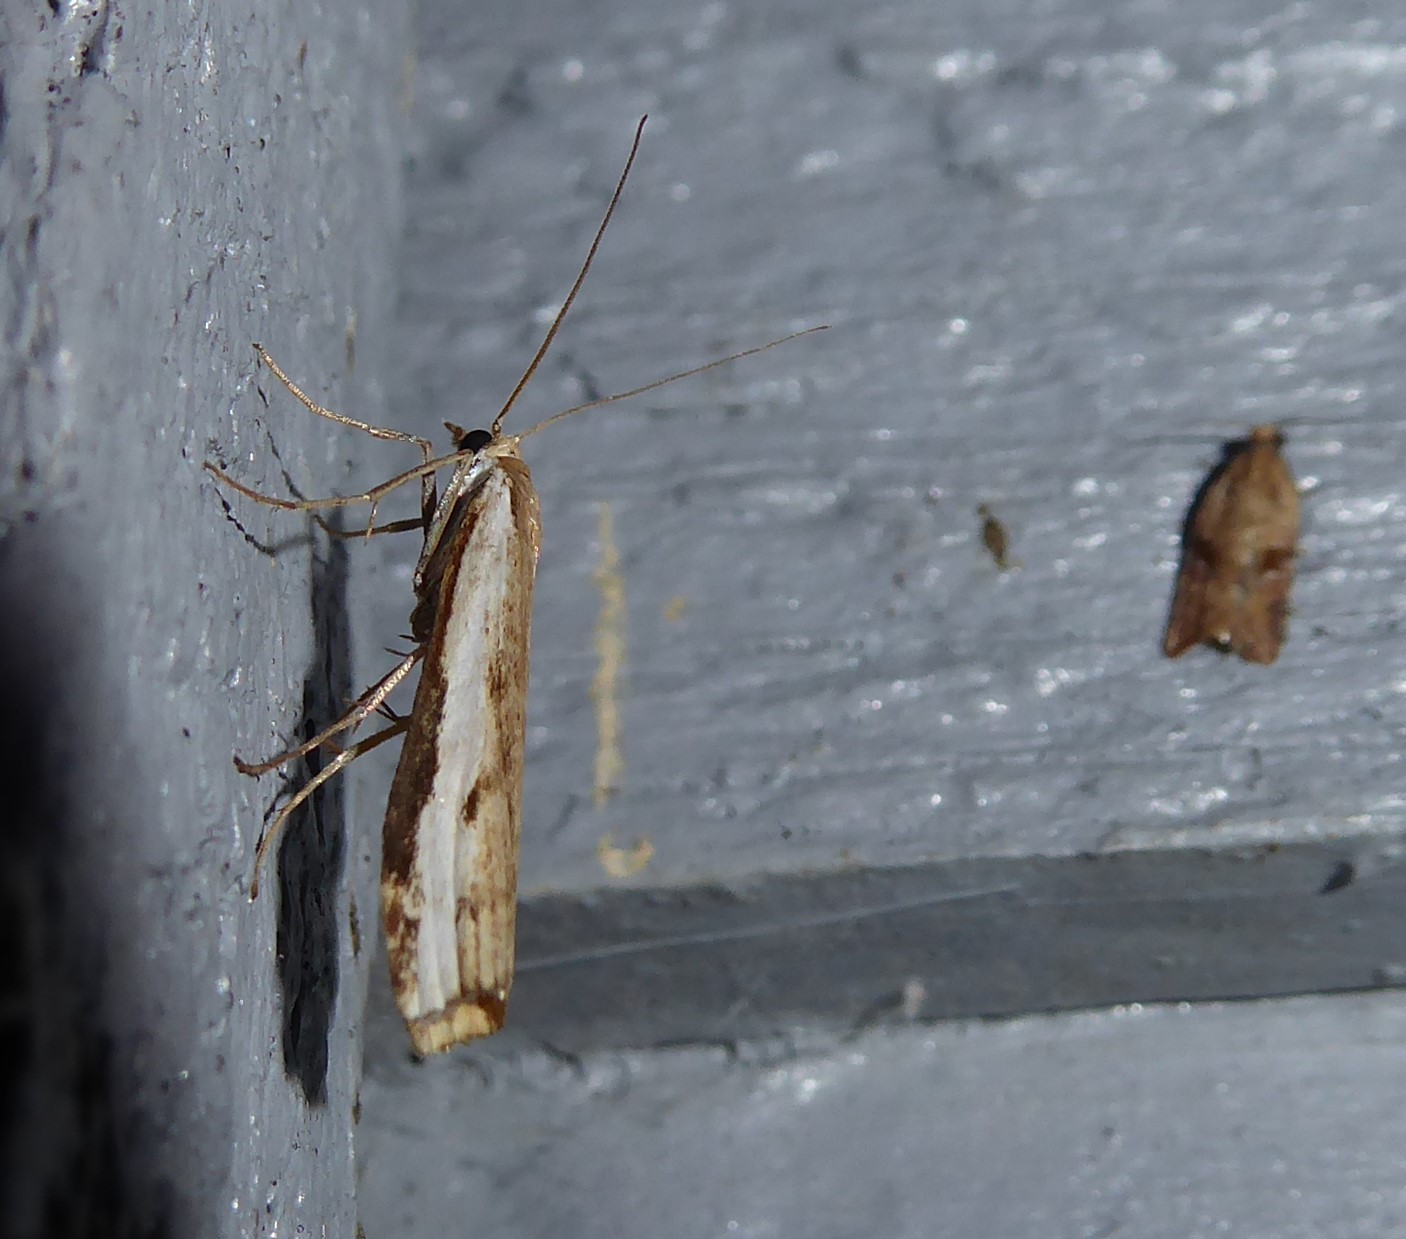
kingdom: Animalia
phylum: Arthropoda
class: Insecta
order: Lepidoptera
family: Crambidae
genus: Orocrambus
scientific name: Orocrambus flexuosellus
